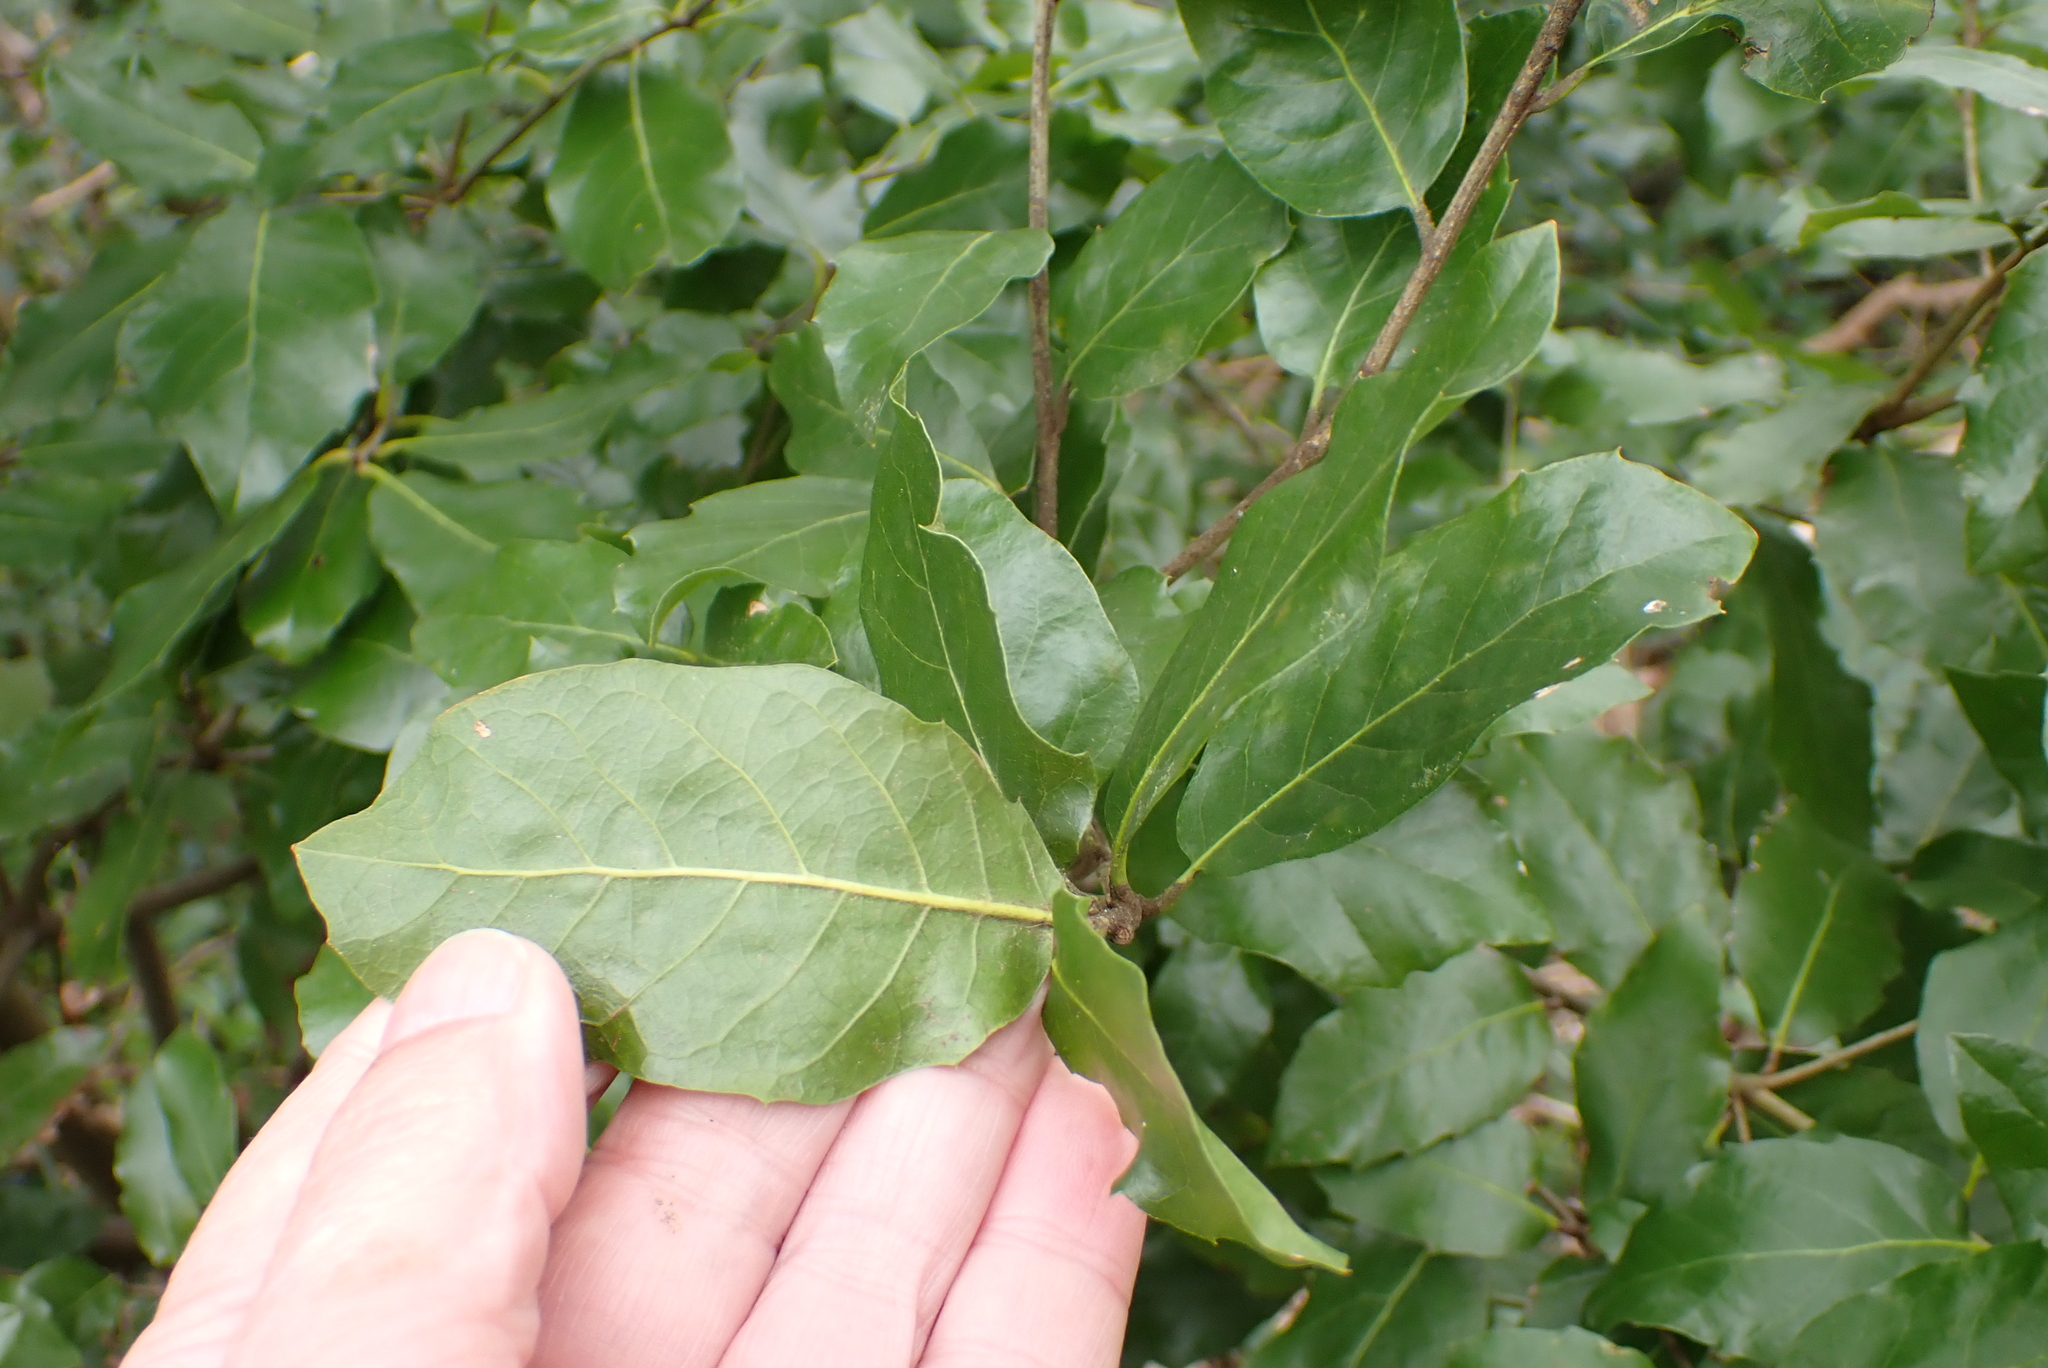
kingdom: Plantae
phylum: Tracheophyta
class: Magnoliopsida
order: Fagales
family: Fagaceae
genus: Quercus
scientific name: Quercus ilex
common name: Evergreen oak
